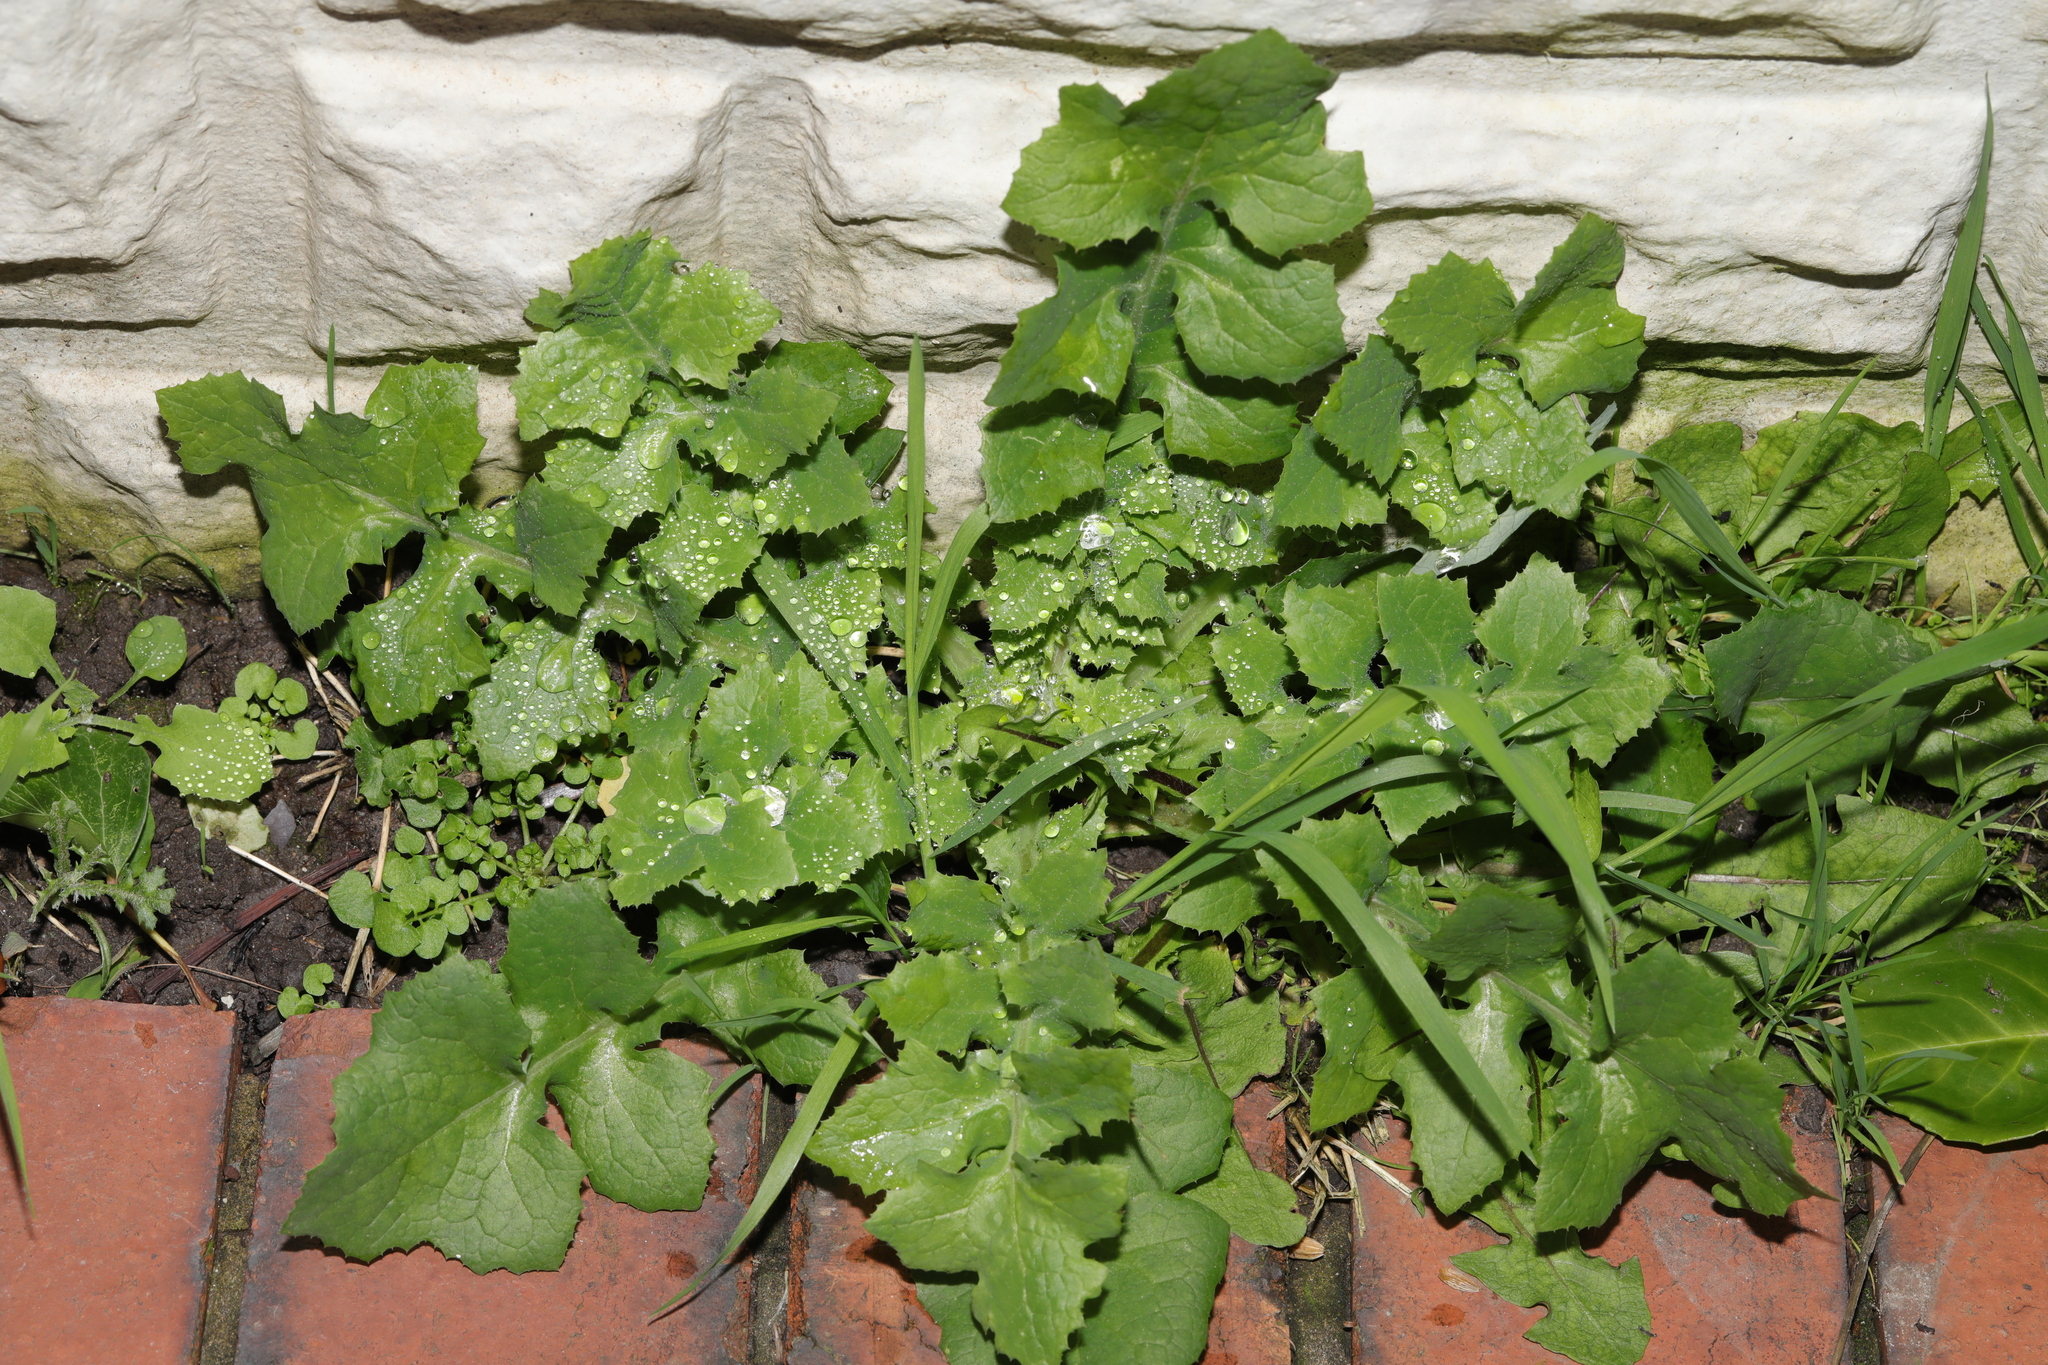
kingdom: Plantae
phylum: Tracheophyta
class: Magnoliopsida
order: Asterales
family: Asteraceae
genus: Sonchus
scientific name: Sonchus oleraceus
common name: Common sowthistle
